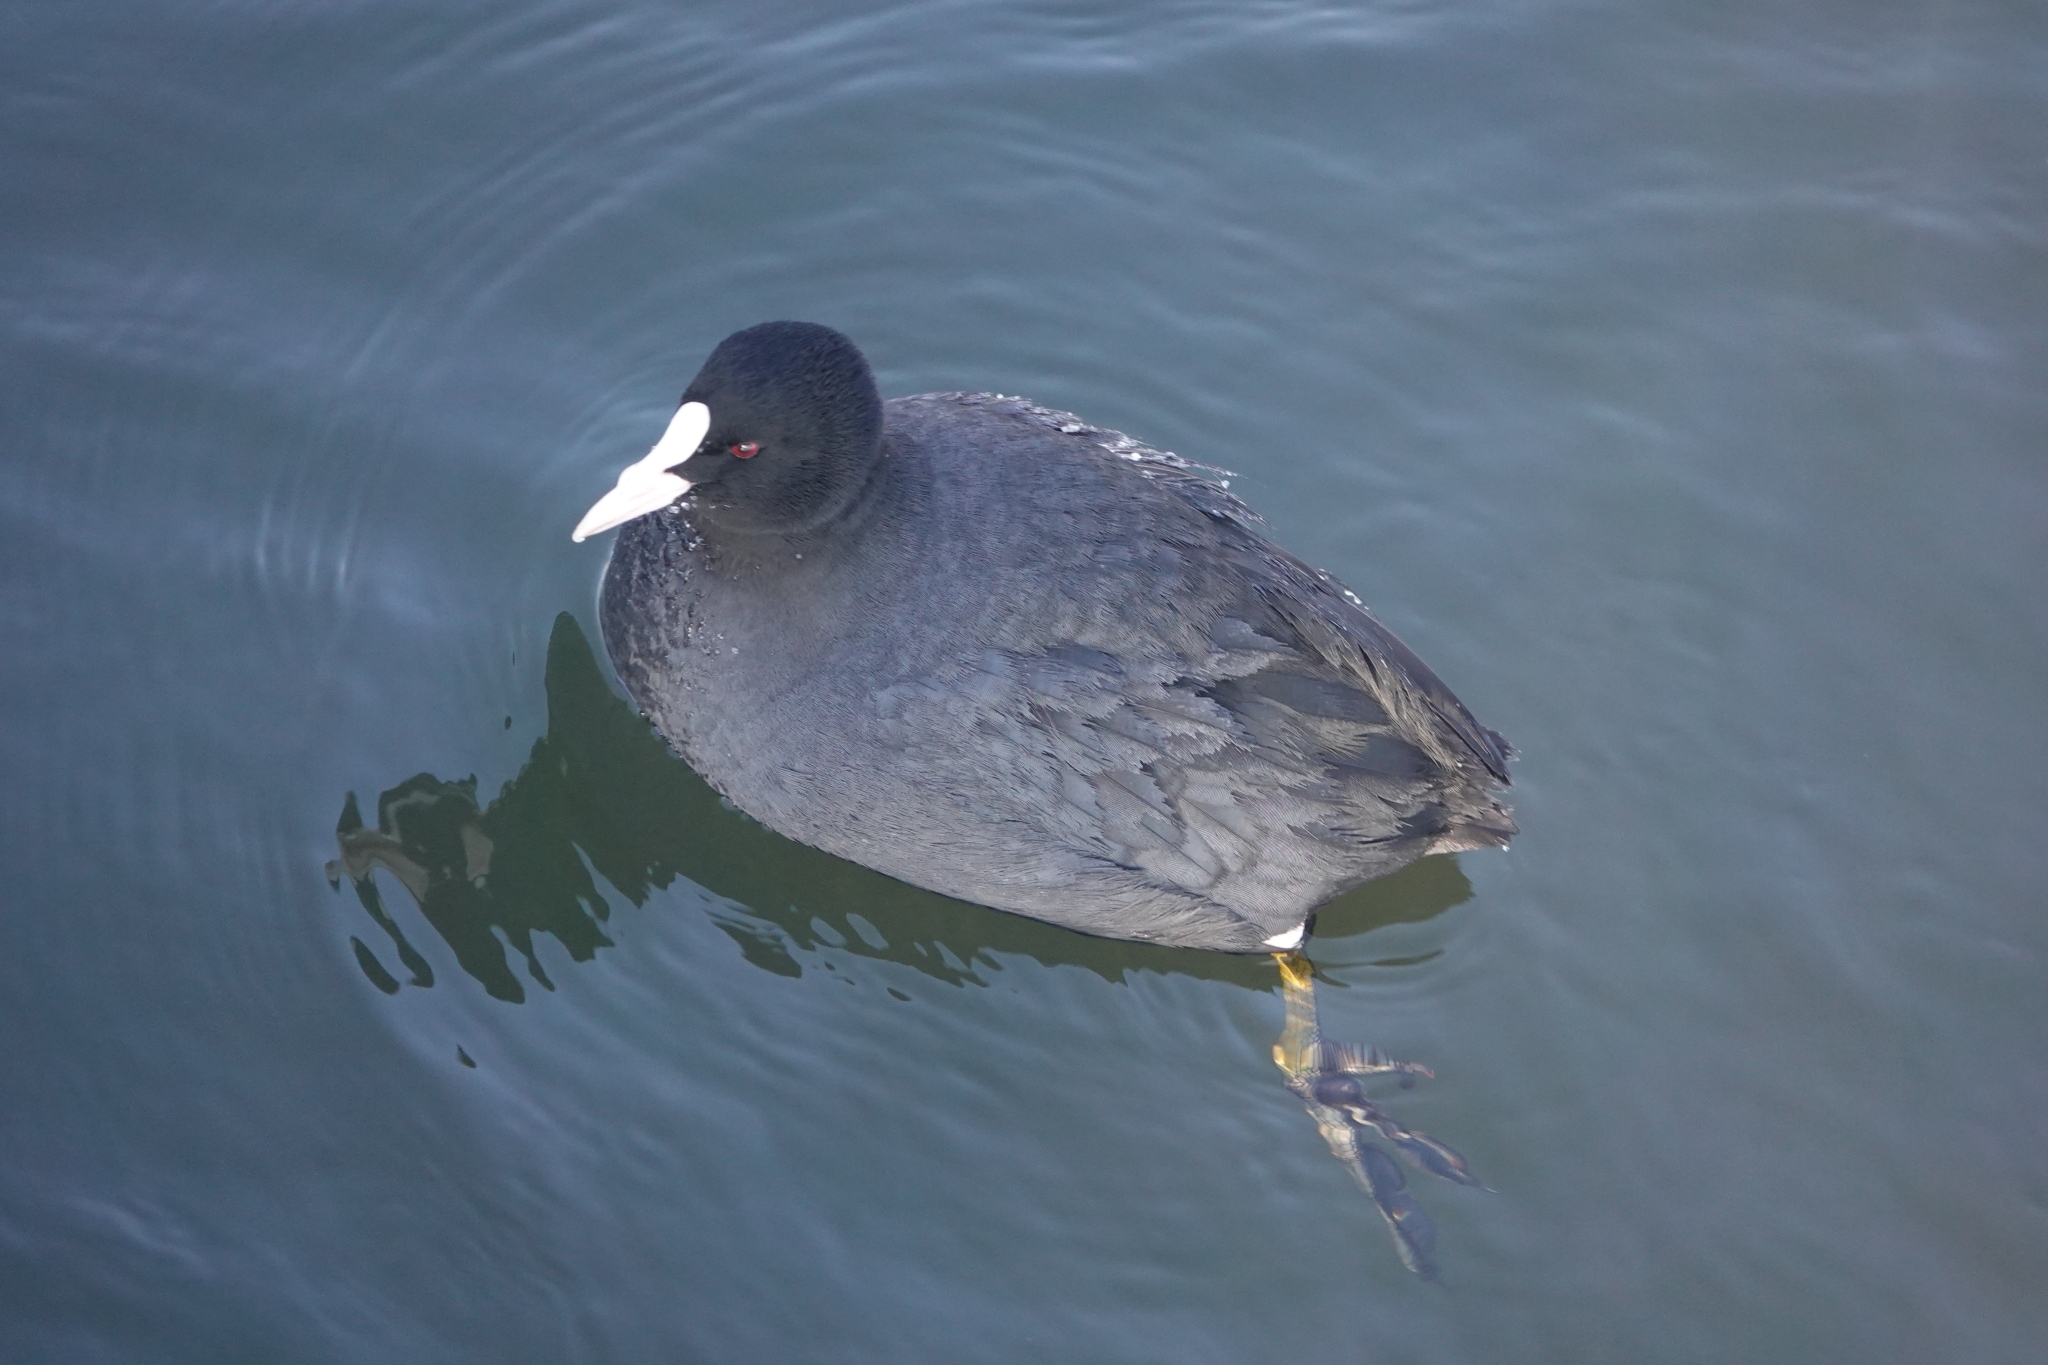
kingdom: Animalia
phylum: Chordata
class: Aves
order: Gruiformes
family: Rallidae
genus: Fulica
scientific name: Fulica atra
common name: Eurasian coot
